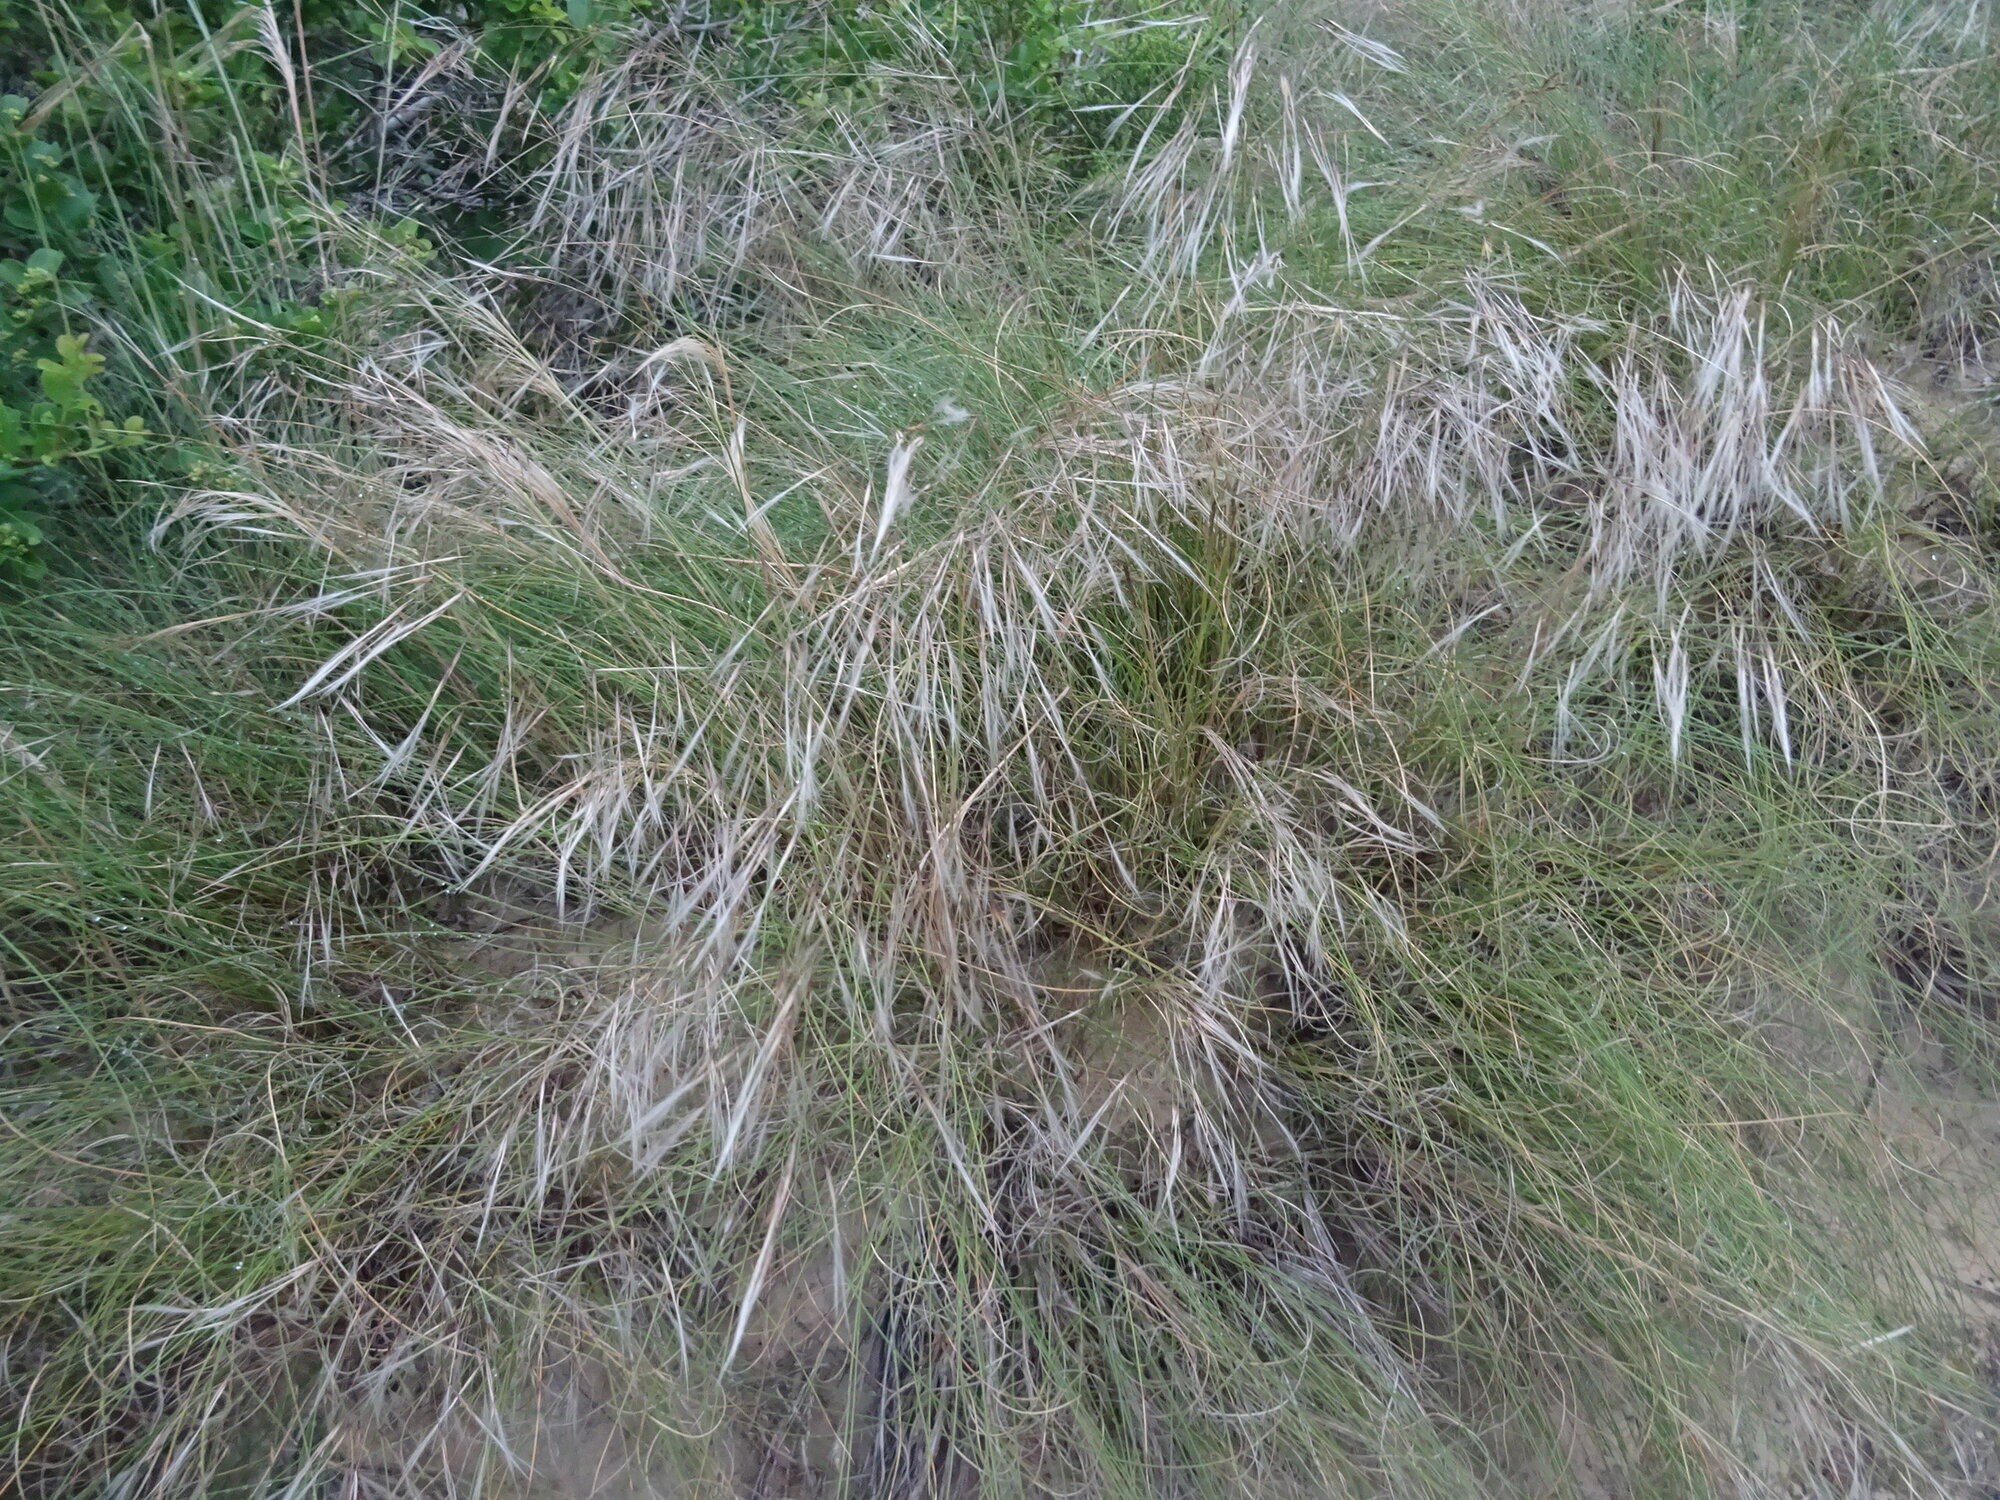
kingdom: Plantae
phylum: Tracheophyta
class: Liliopsida
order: Poales
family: Poaceae
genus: Stipagrostis
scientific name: Stipagrostis zeyheri
